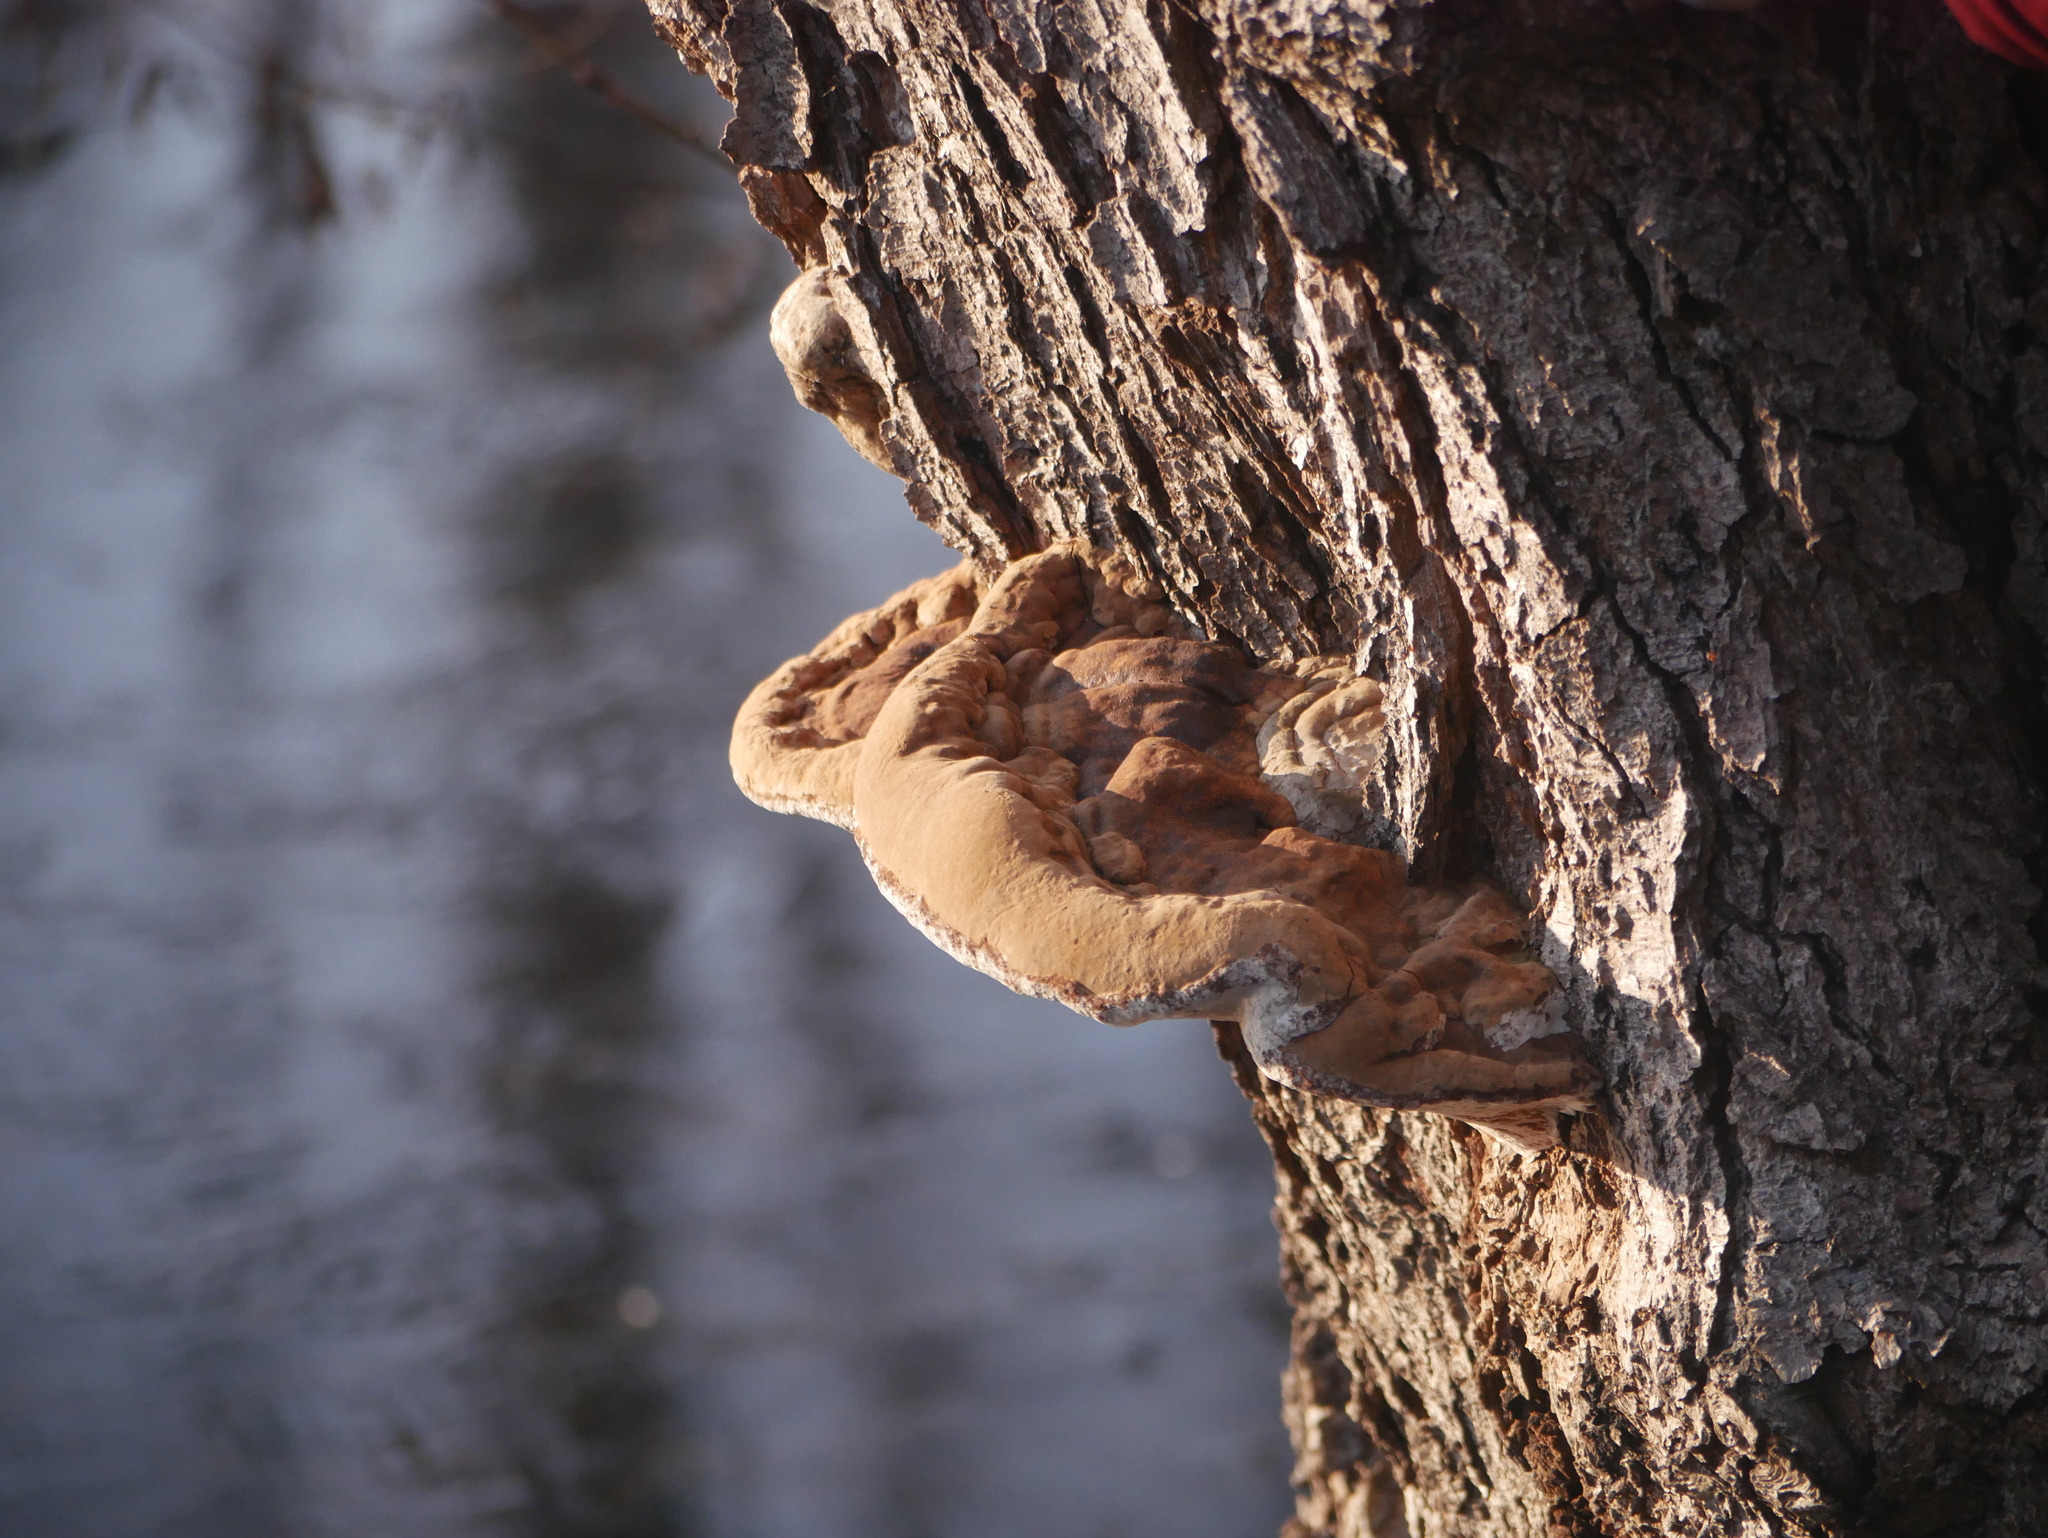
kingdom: Fungi
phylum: Basidiomycota
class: Agaricomycetes
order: Polyporales
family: Polyporaceae
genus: Ganoderma
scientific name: Ganoderma applanatum
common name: Artist's bracket
